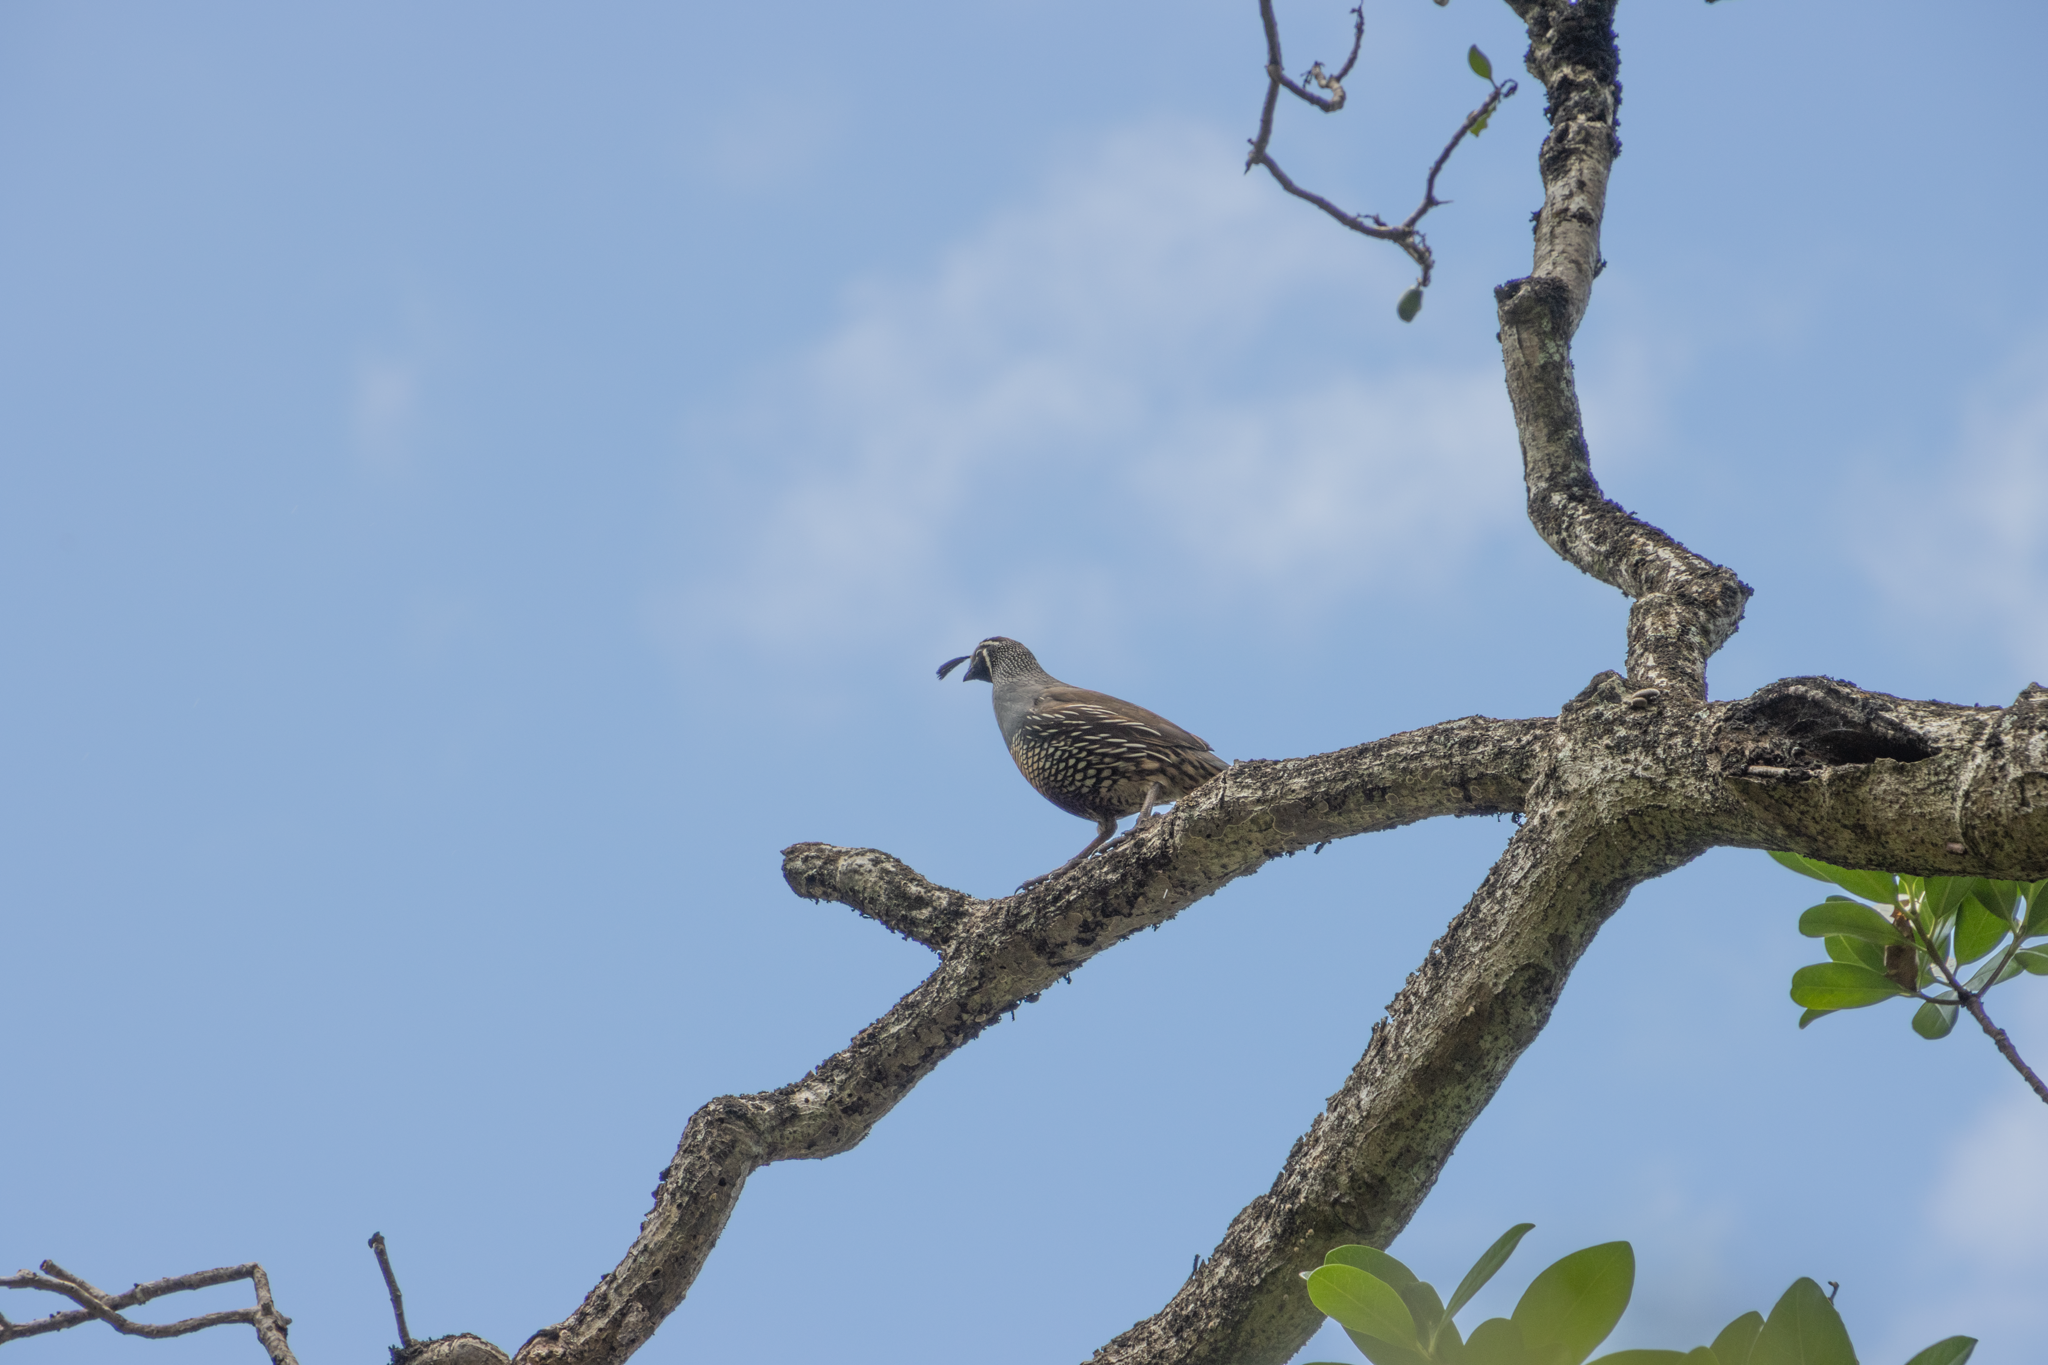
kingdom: Animalia
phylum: Chordata
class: Aves
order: Galliformes
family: Odontophoridae
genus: Callipepla
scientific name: Callipepla californica
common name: California quail
